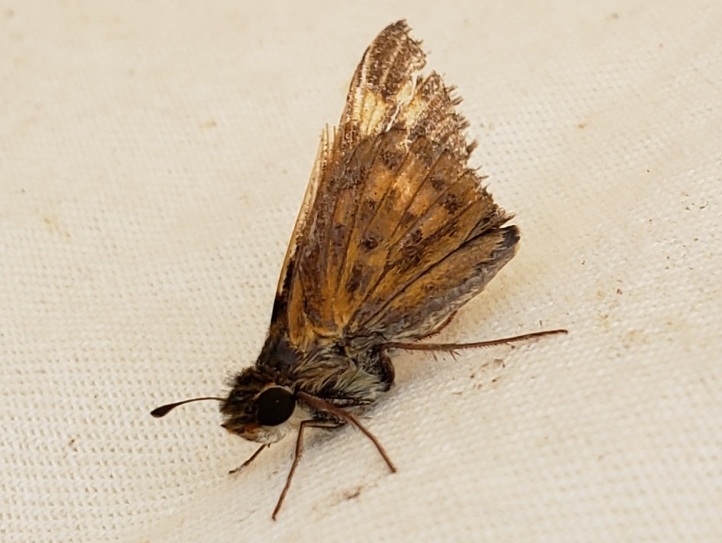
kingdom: Animalia
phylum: Arthropoda
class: Insecta
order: Lepidoptera
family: Hesperiidae
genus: Hylephila
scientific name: Hylephila phyleus
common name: Fiery skipper
